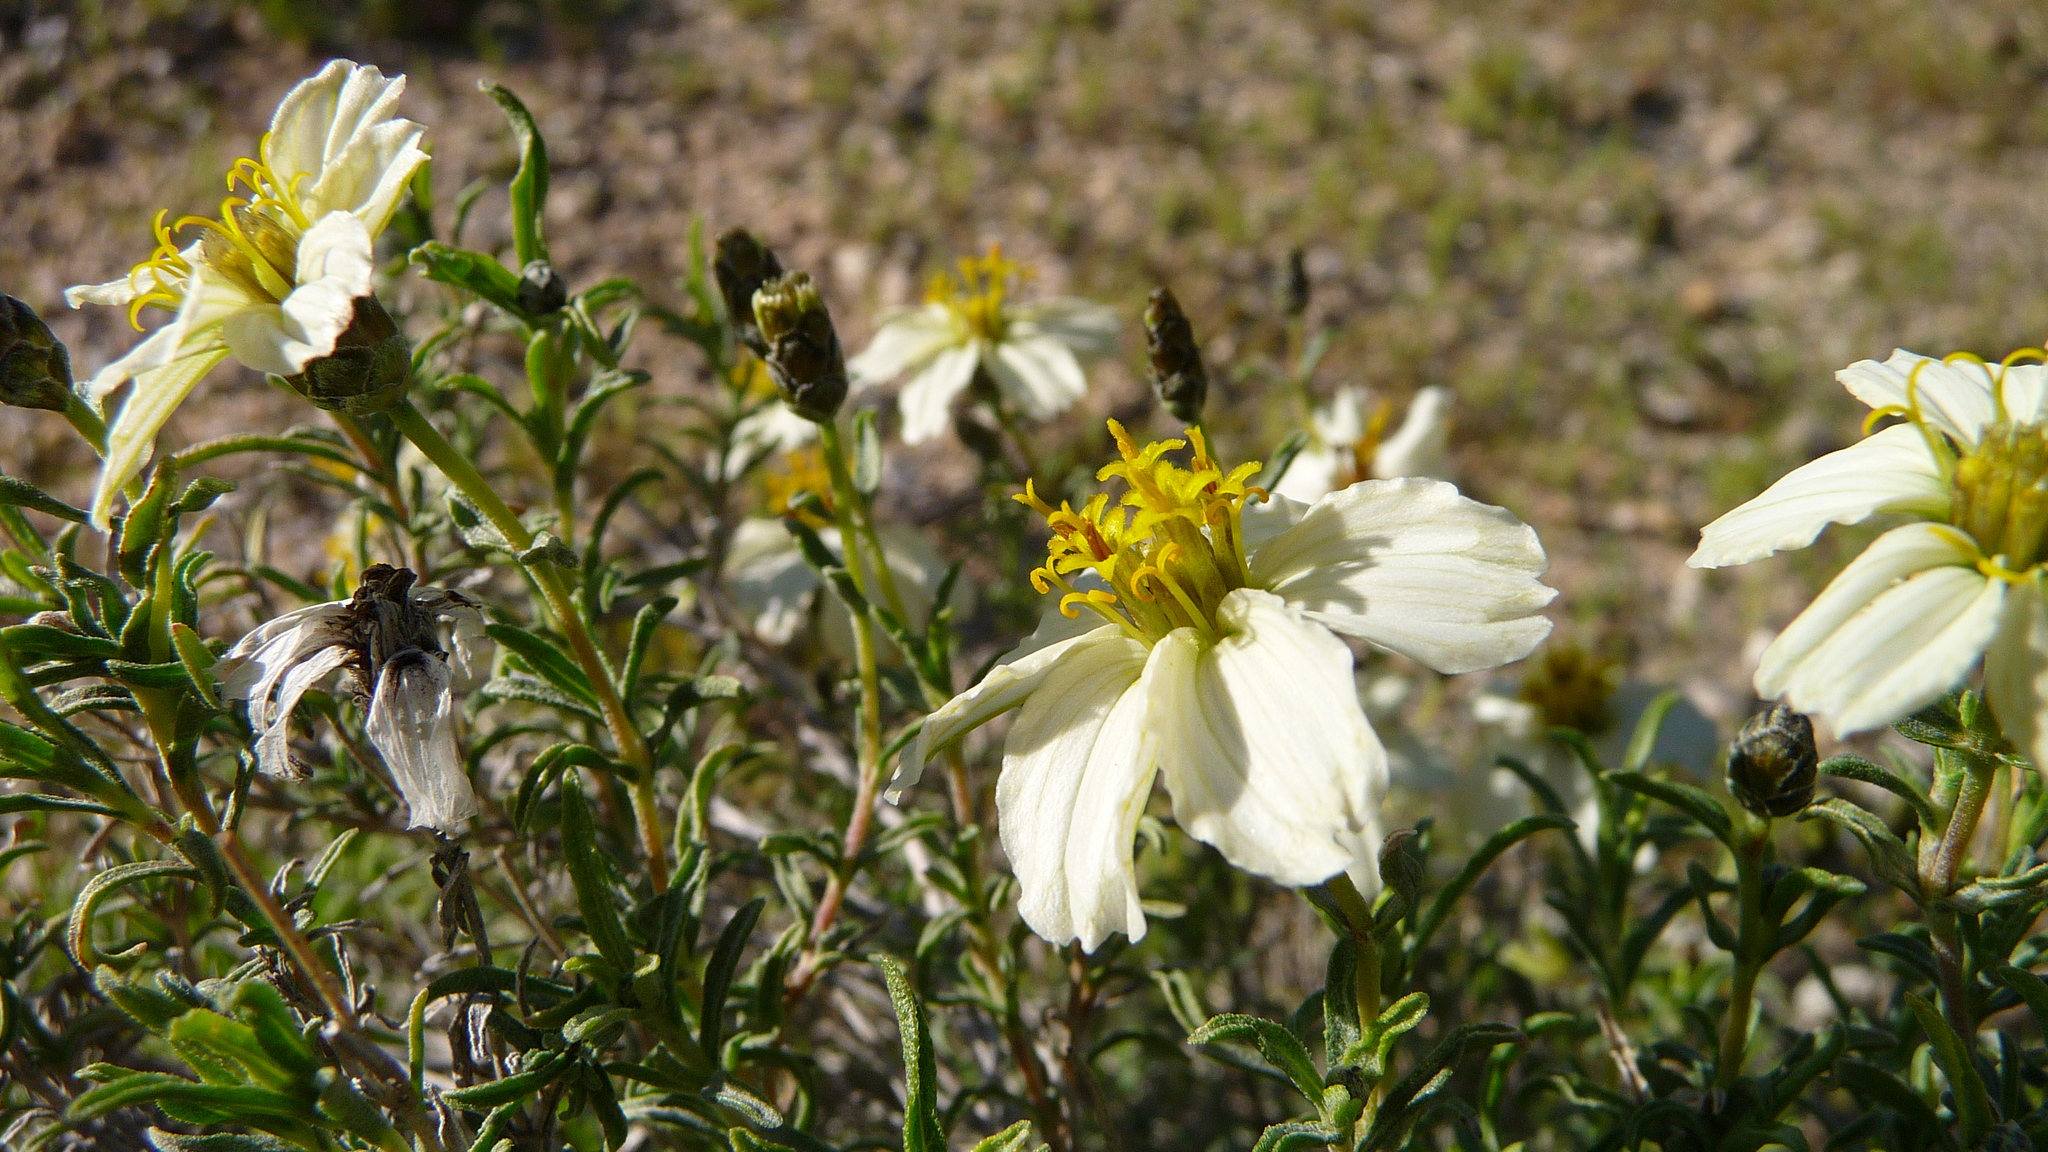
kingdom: Plantae
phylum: Tracheophyta
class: Magnoliopsida
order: Asterales
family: Asteraceae
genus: Zinnia
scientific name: Zinnia acerosa
